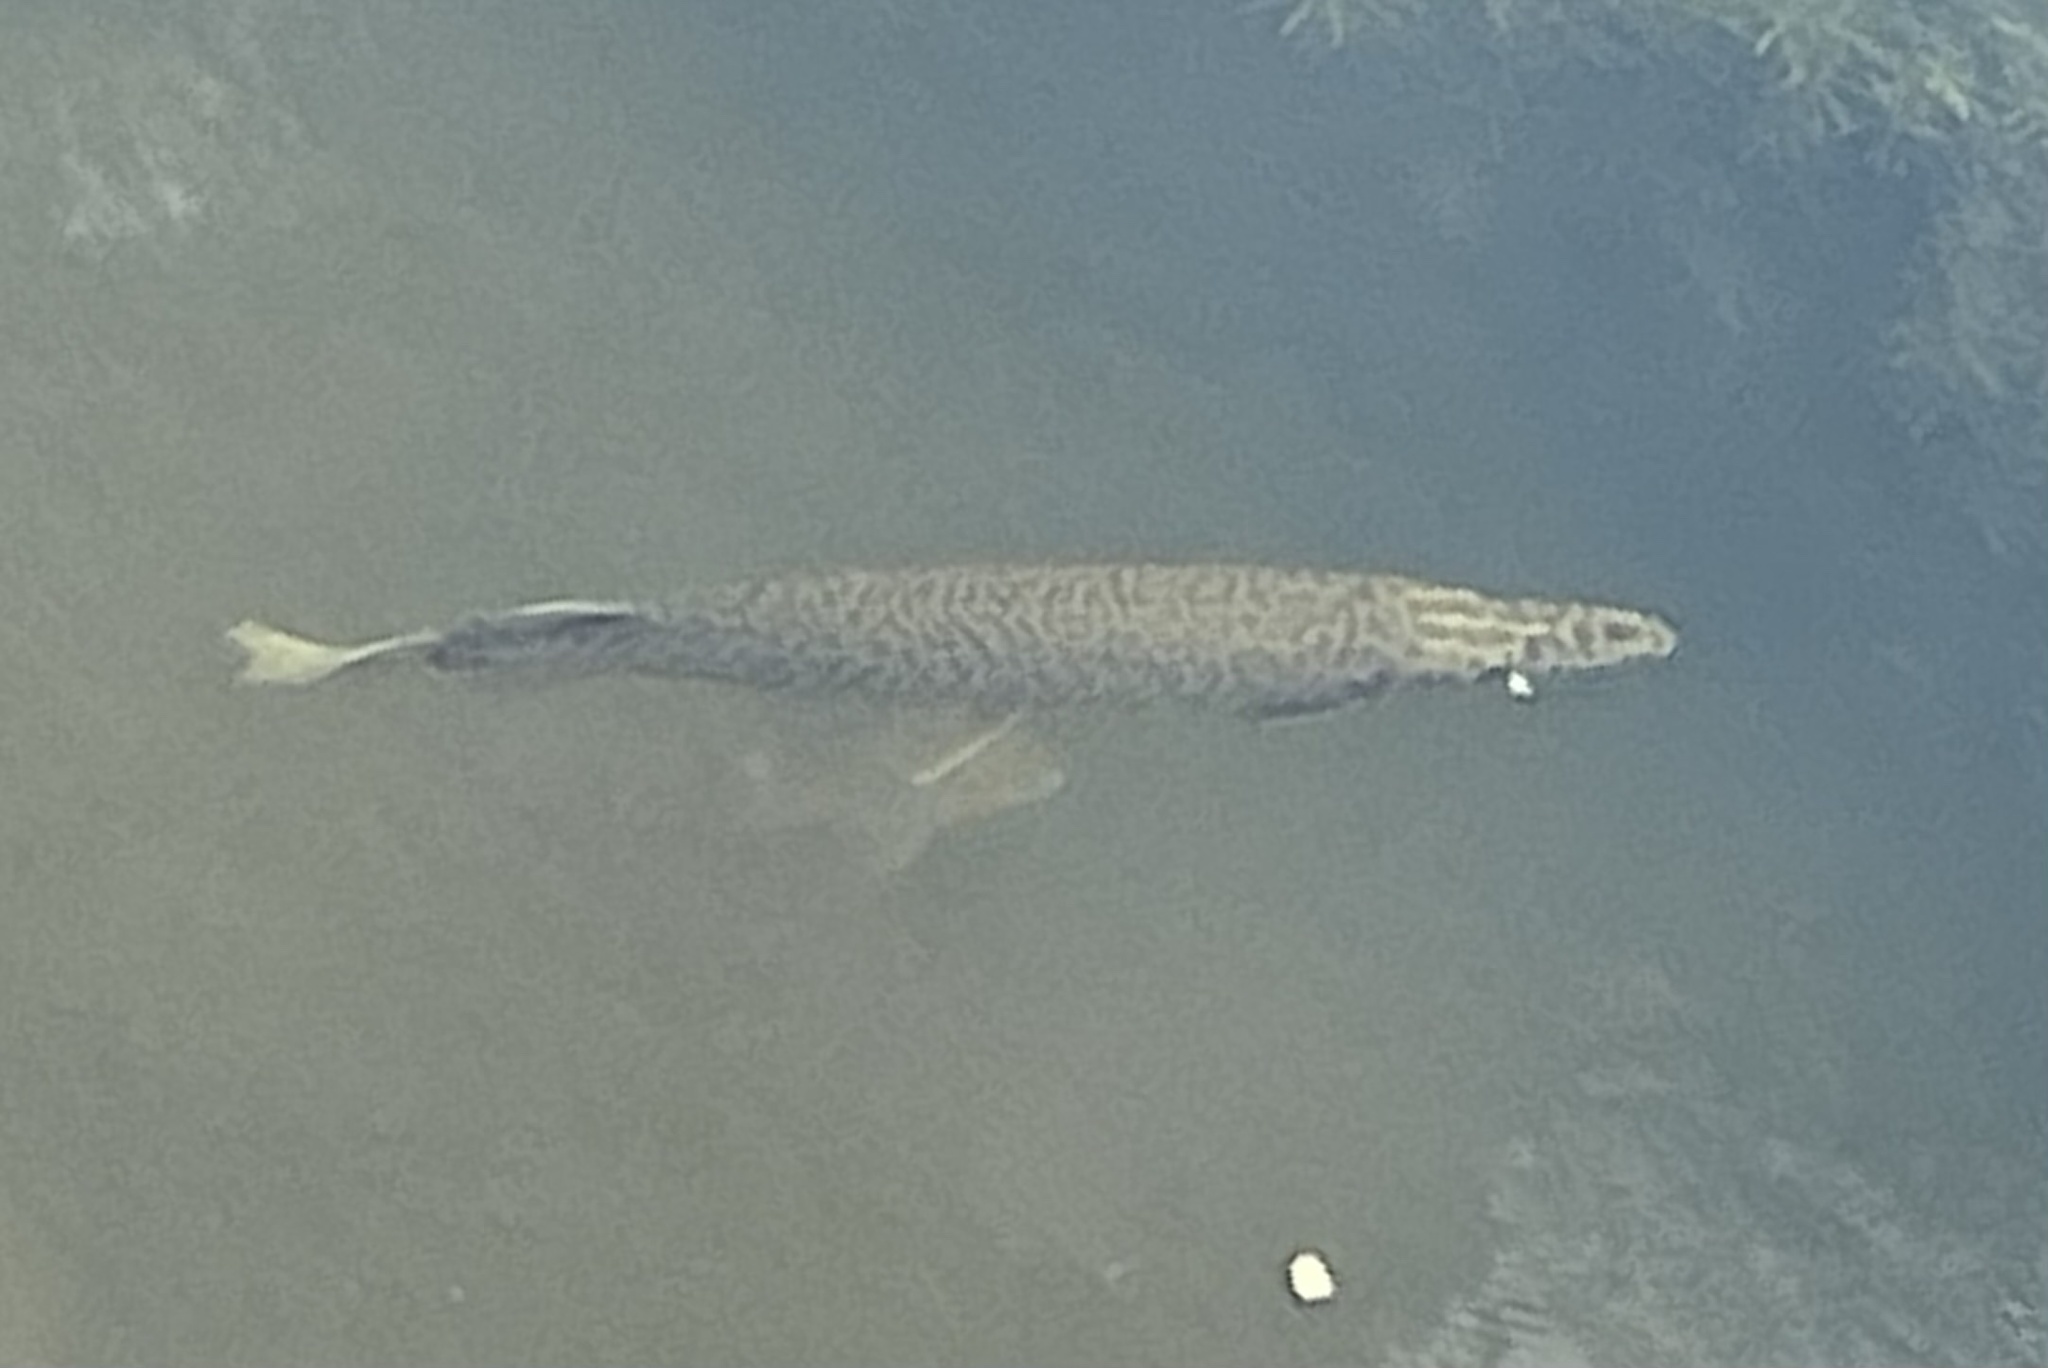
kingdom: Animalia
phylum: Chordata
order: Lepisosteiformes
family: Lepisosteidae
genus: Lepisosteus
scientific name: Lepisosteus platyrhincus
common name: Florida gar
